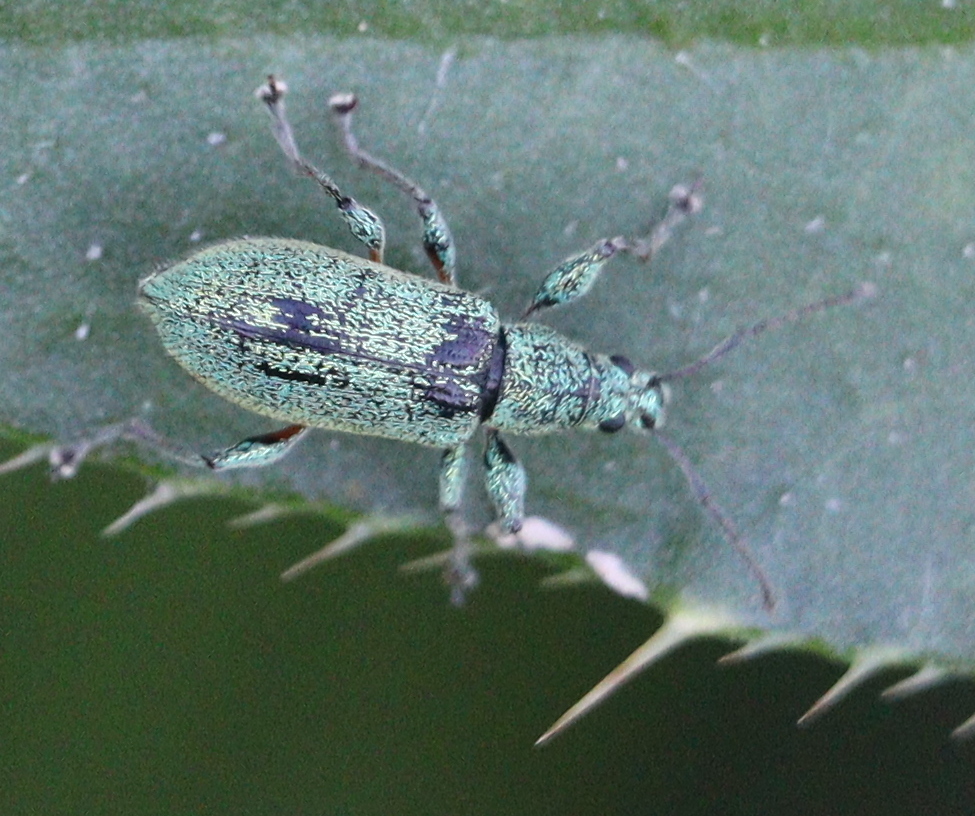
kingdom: Animalia
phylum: Arthropoda
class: Insecta
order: Coleoptera
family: Curculionidae
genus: Phyllobius
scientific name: Phyllobius arborator
